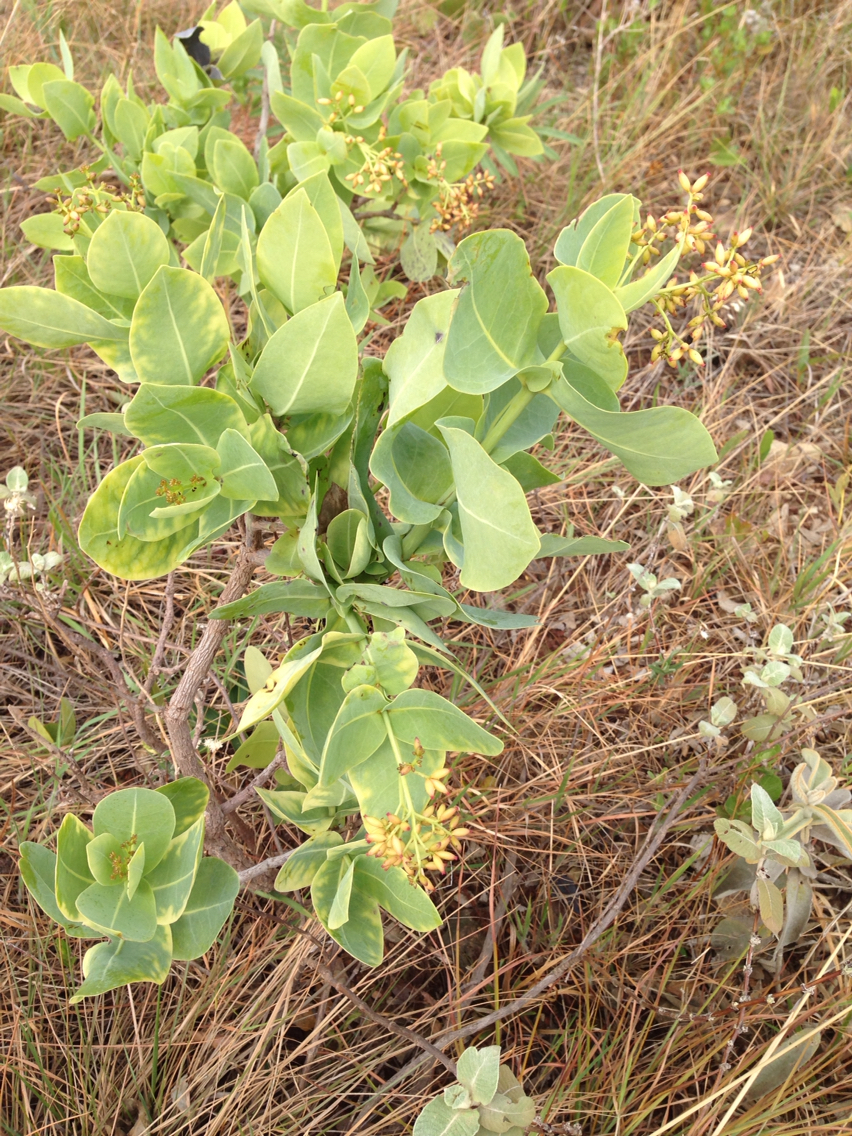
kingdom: Plantae
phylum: Tracheophyta
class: Magnoliopsida
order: Caryophyllales
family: Nyctaginaceae
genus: Neea
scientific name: Neea theifera
